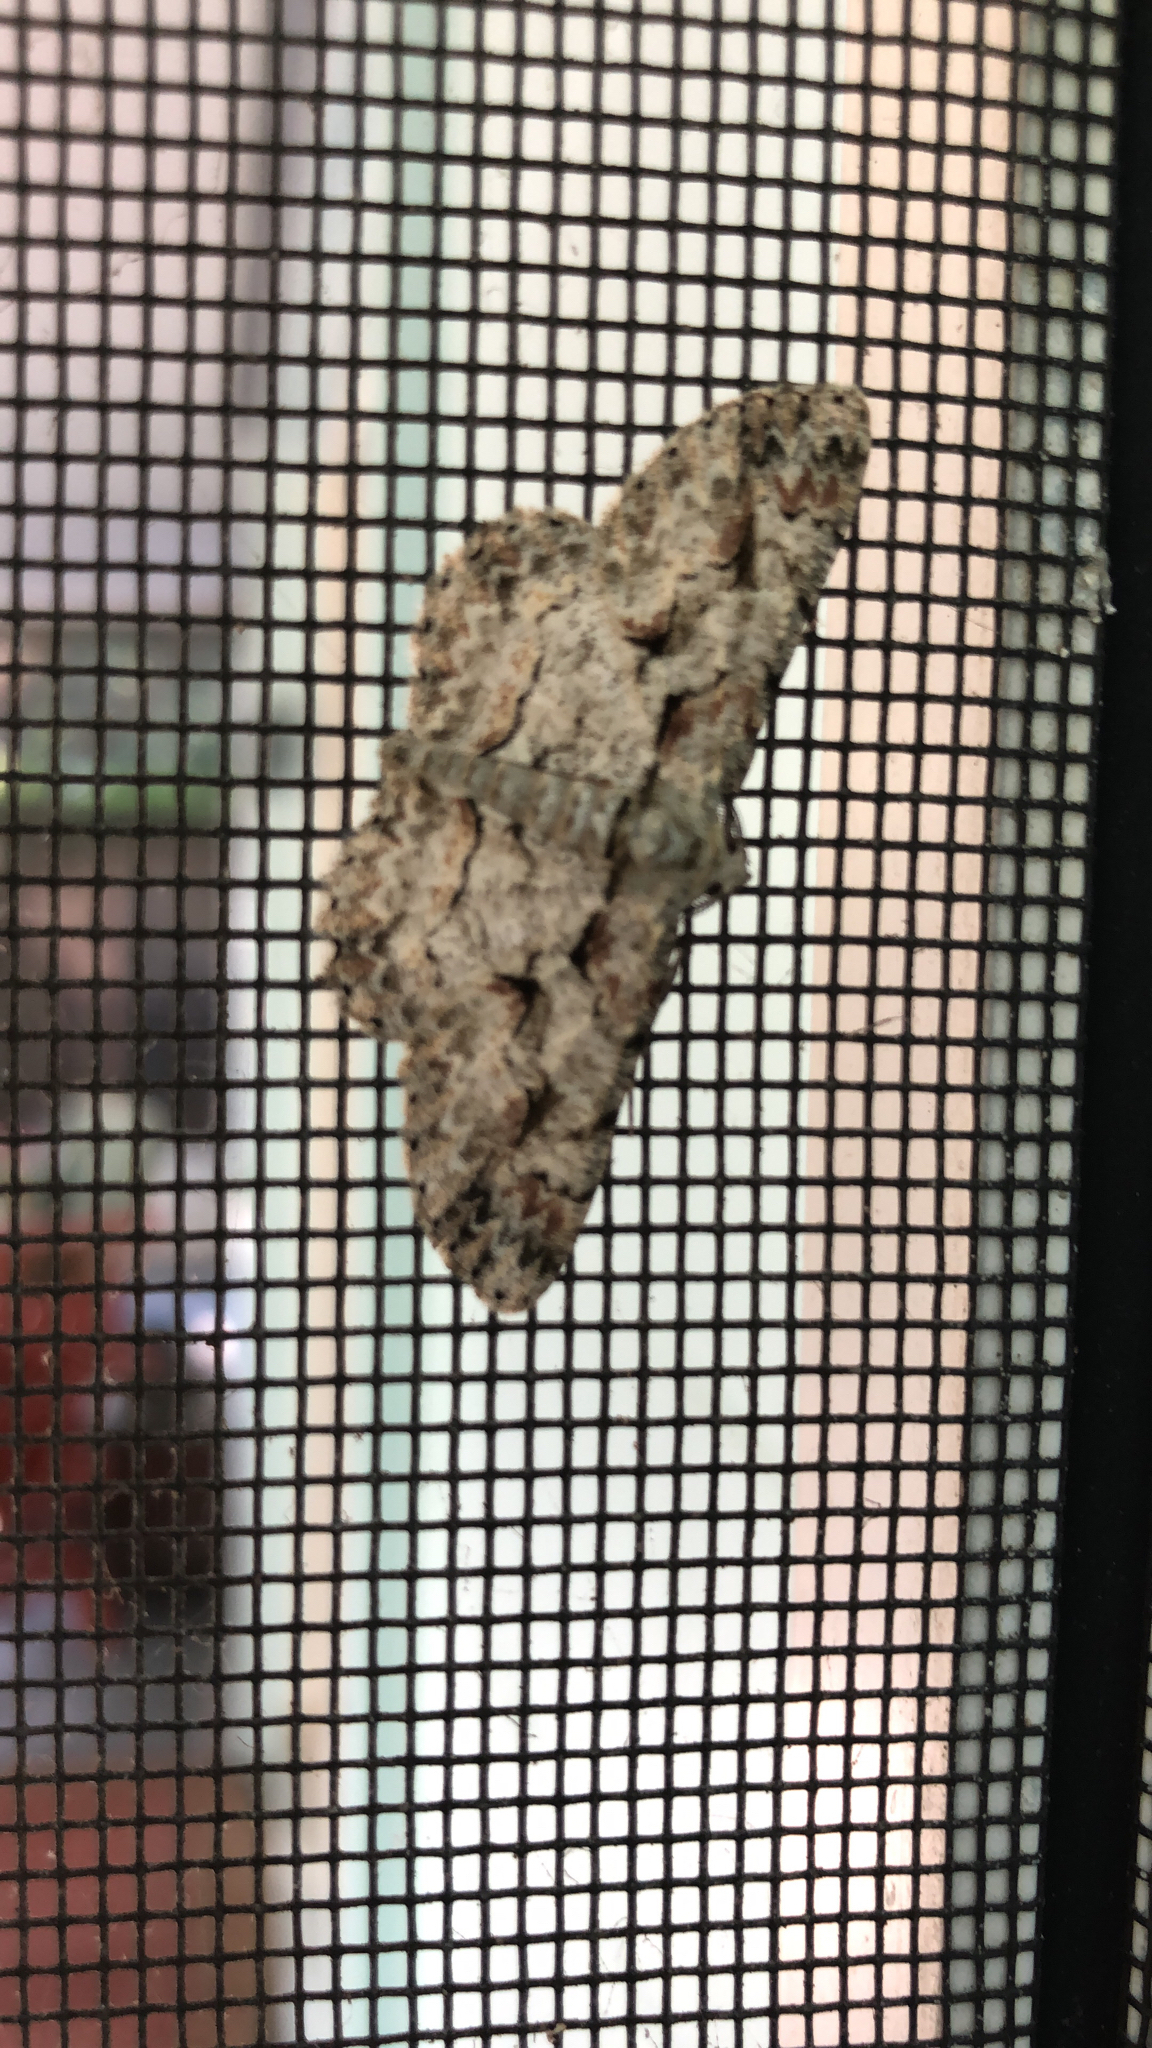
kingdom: Animalia
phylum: Arthropoda
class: Insecta
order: Lepidoptera
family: Geometridae
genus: Iridopsis
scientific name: Iridopsis defectaria
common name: Brown-shaded gray
